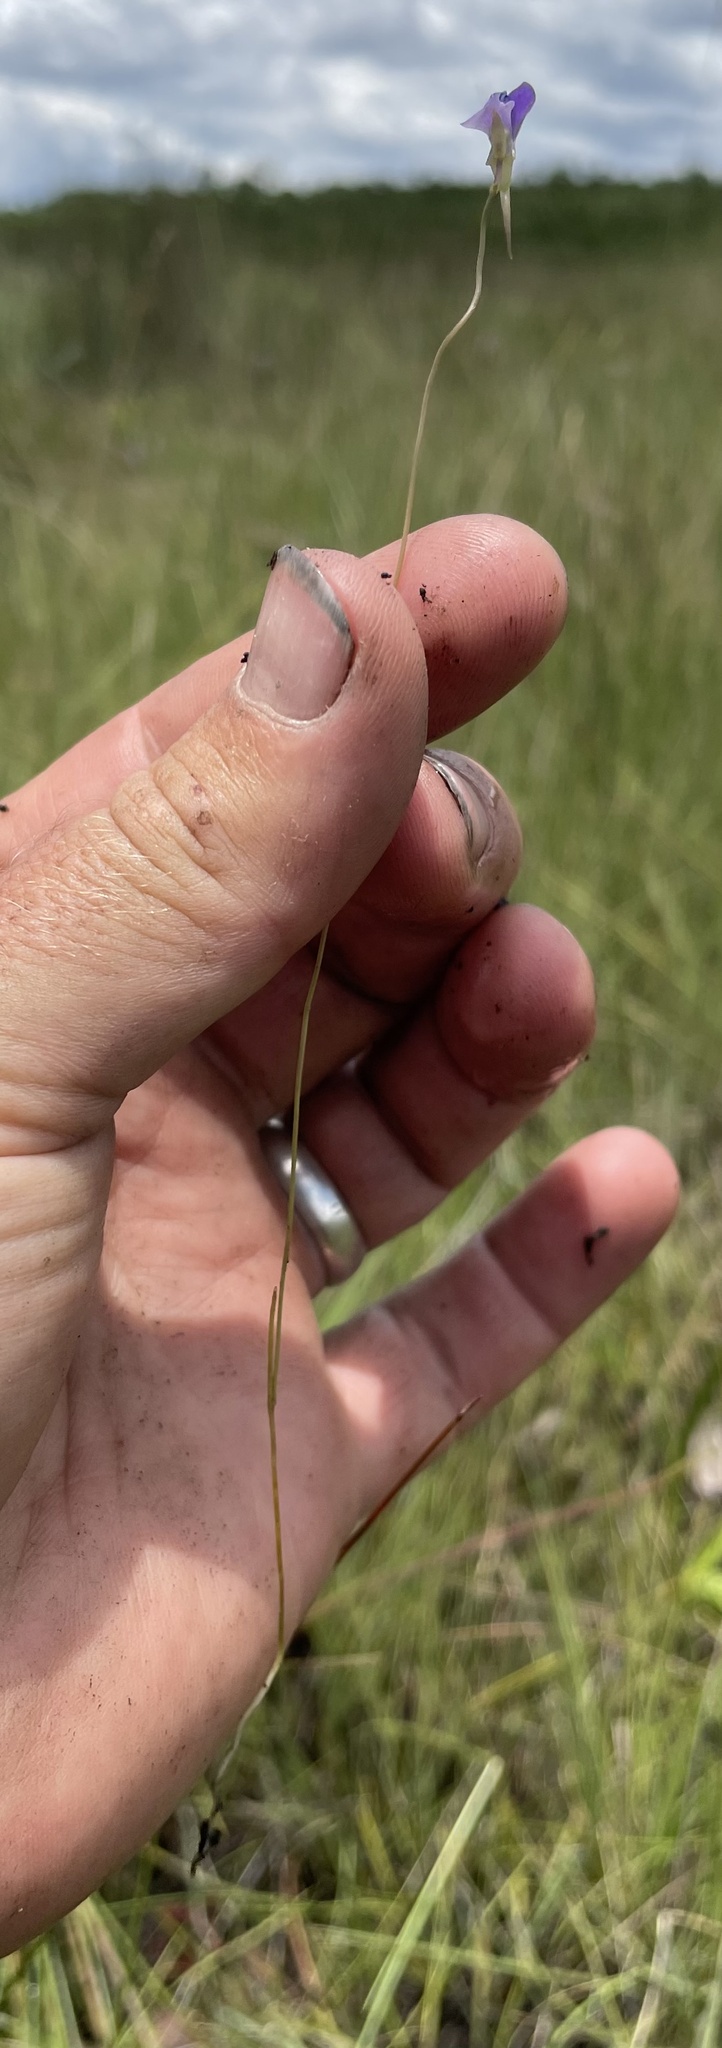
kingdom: Plantae
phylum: Tracheophyta
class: Magnoliopsida
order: Lamiales
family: Lentibulariaceae
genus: Utricularia
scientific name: Utricularia spiralis
